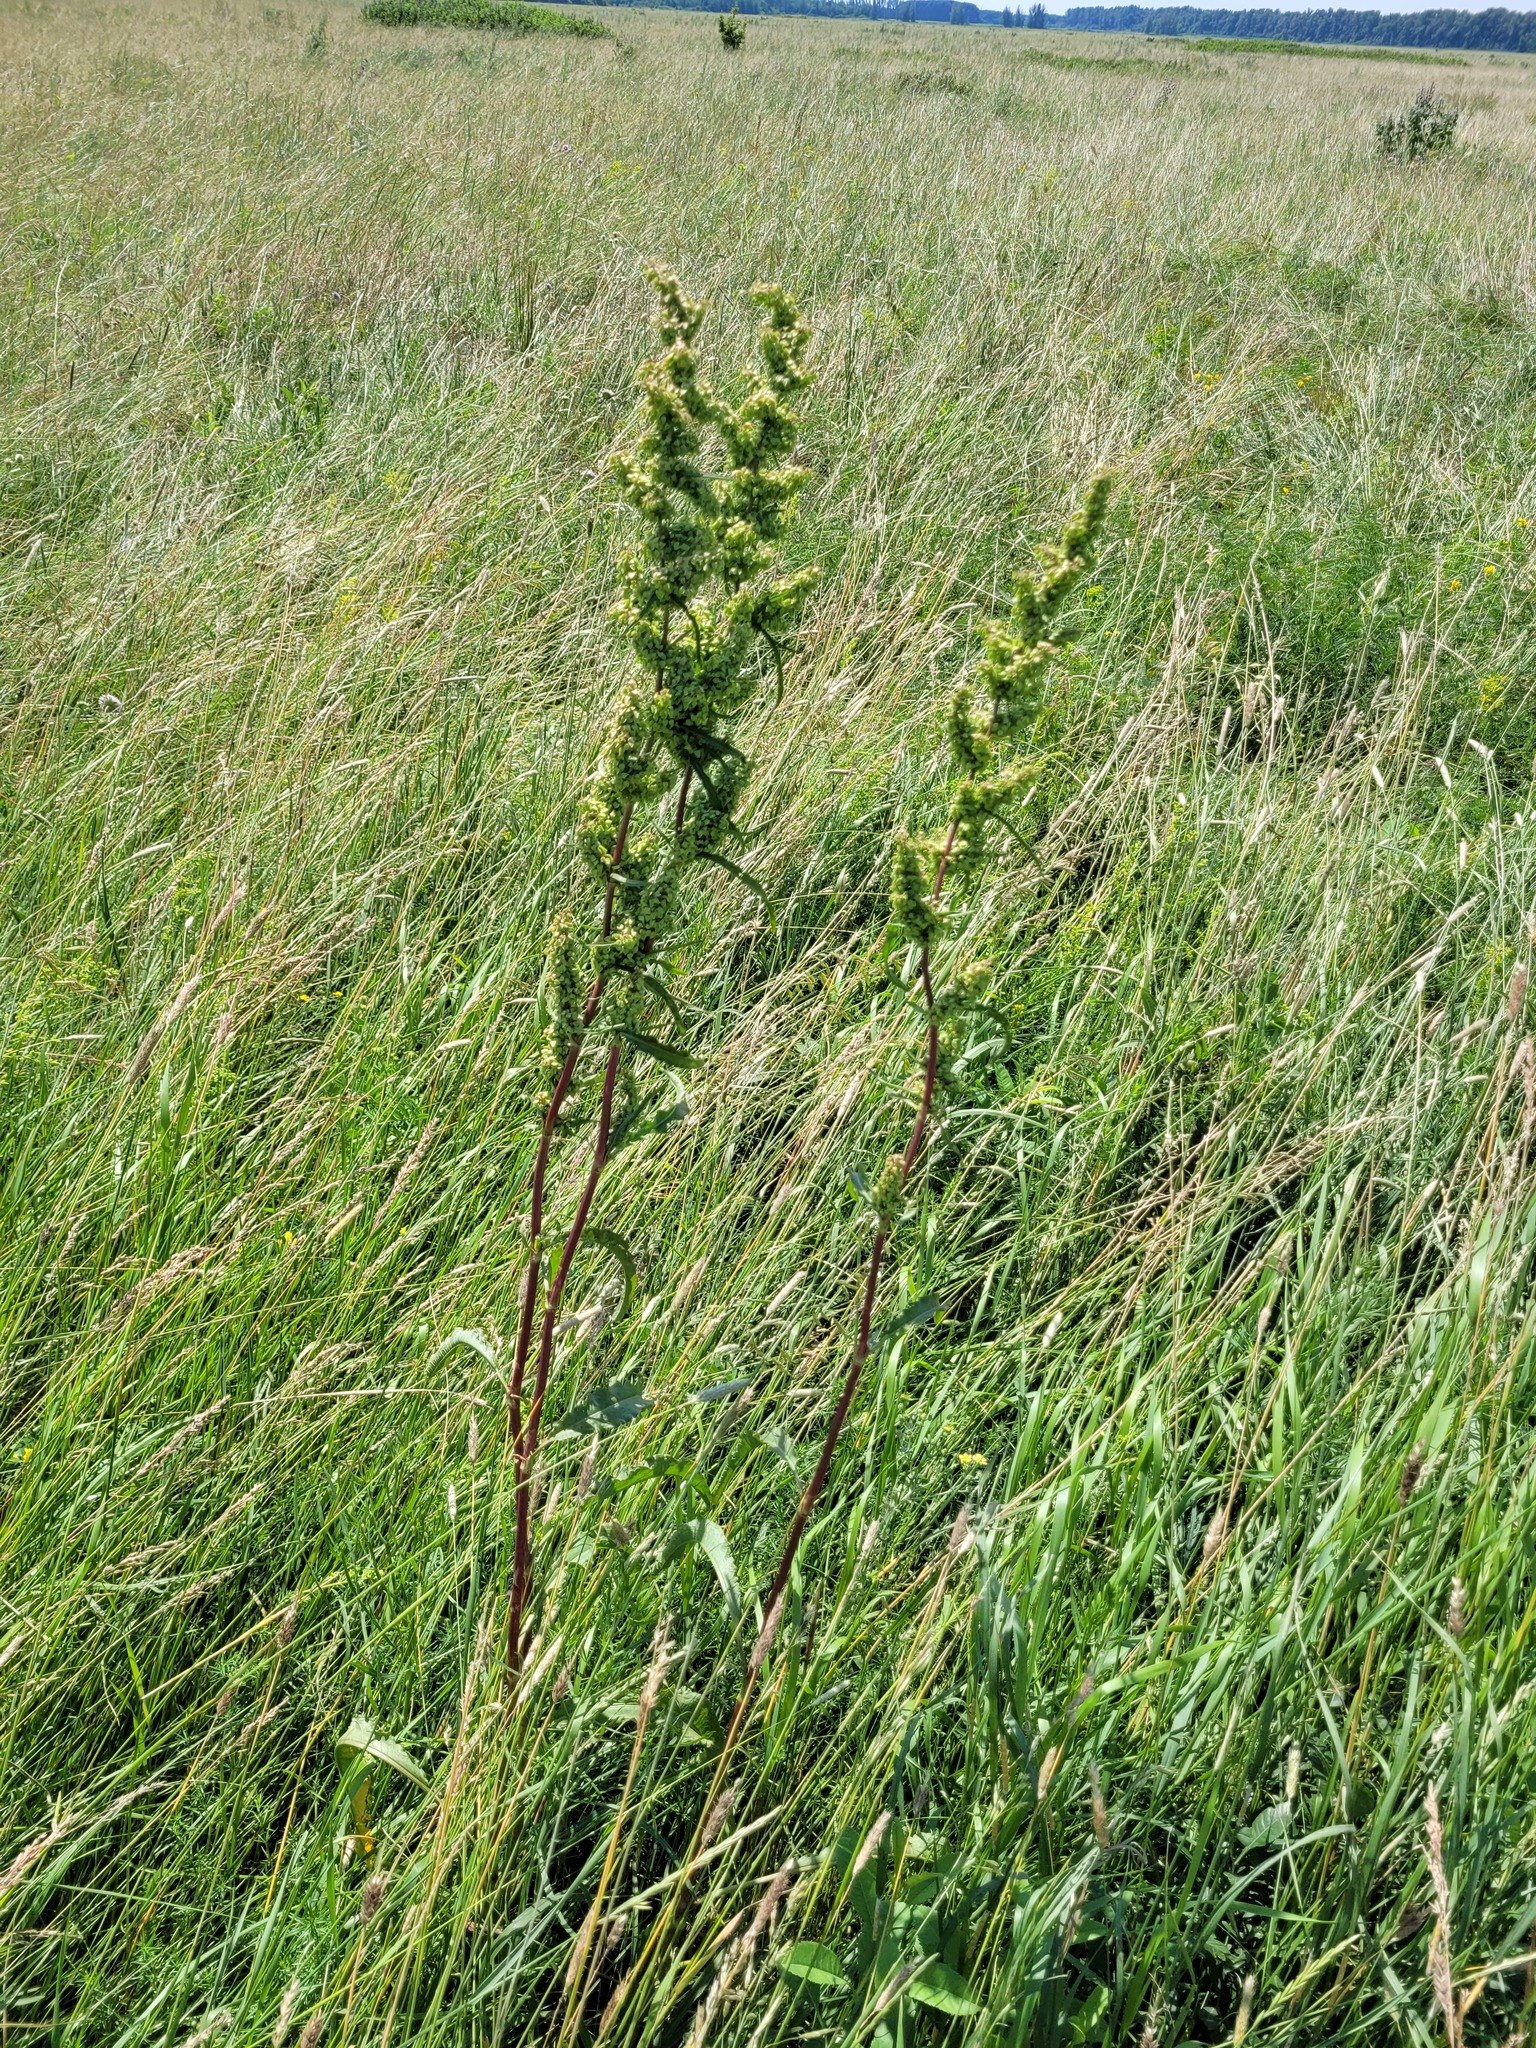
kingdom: Plantae
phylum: Tracheophyta
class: Magnoliopsida
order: Caryophyllales
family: Polygonaceae
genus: Rumex
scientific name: Rumex pseudonatronatus
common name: Field dock
